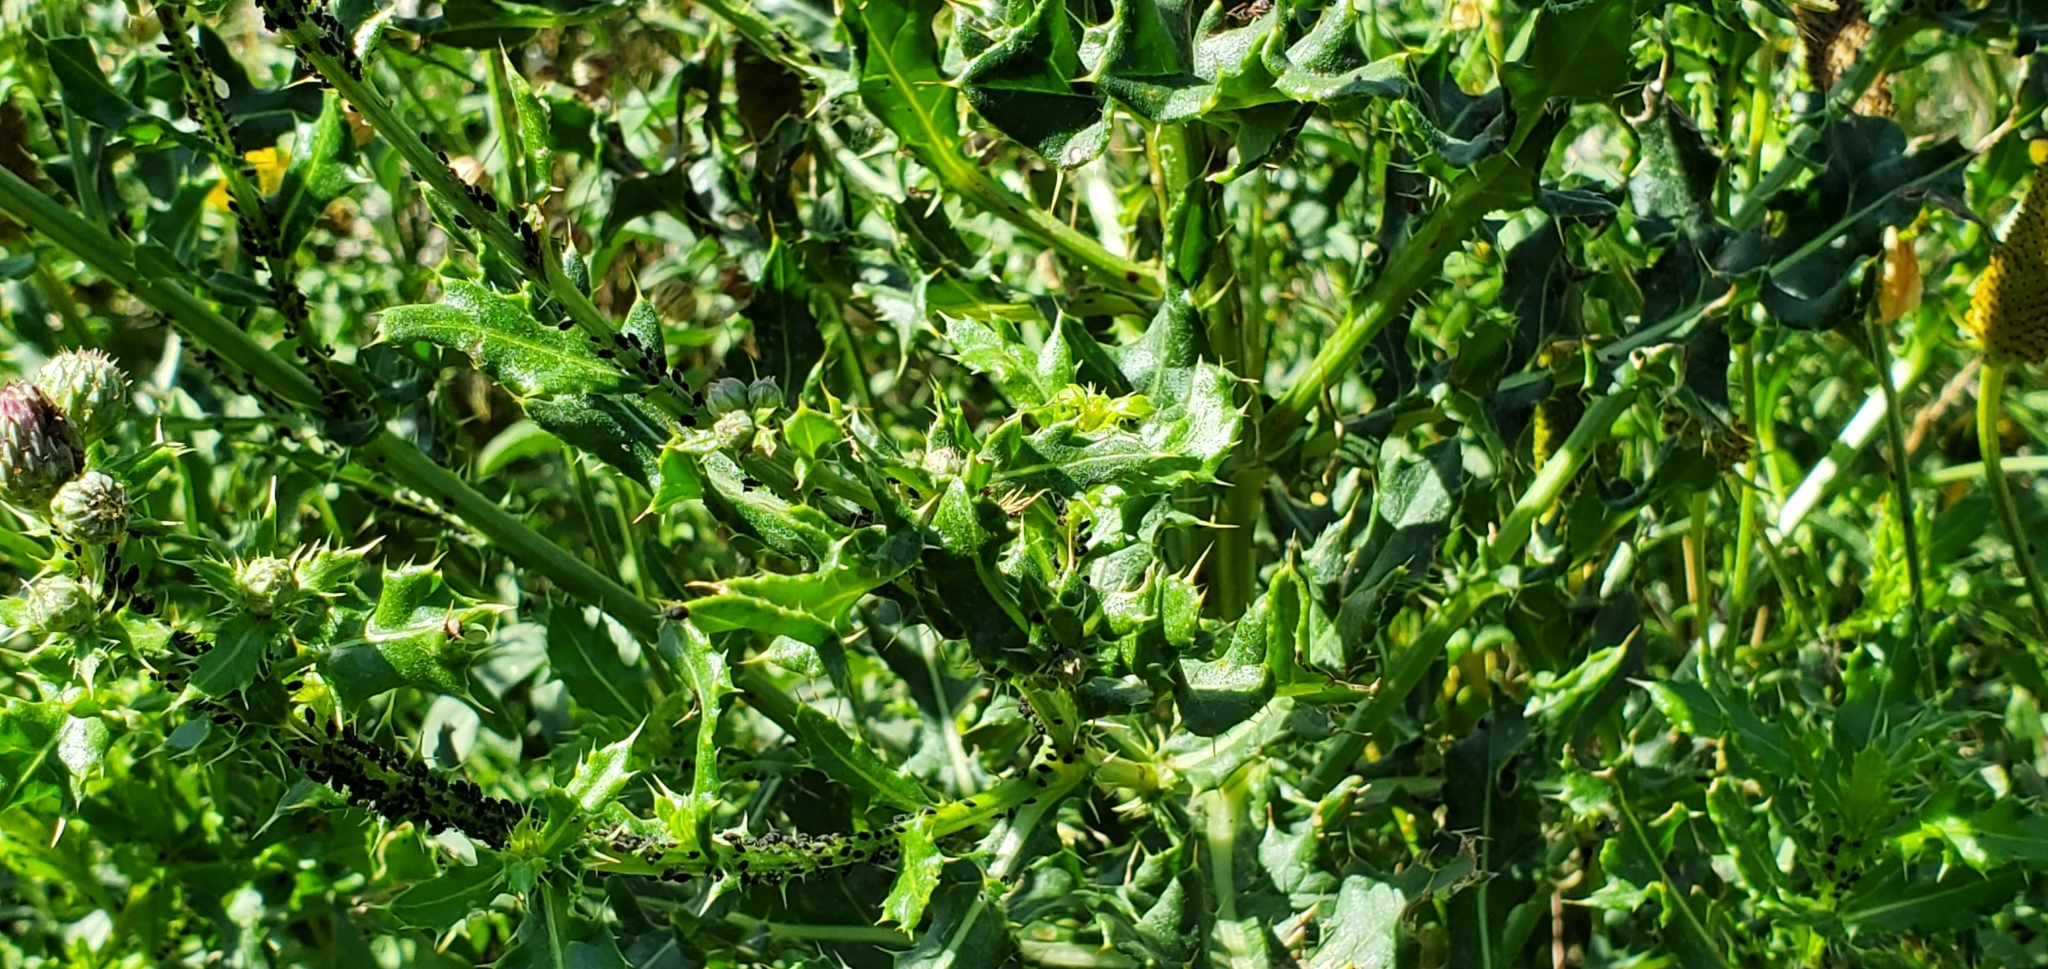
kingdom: Plantae
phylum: Tracheophyta
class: Magnoliopsida
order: Asterales
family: Asteraceae
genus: Cirsium
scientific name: Cirsium arvense
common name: Creeping thistle
